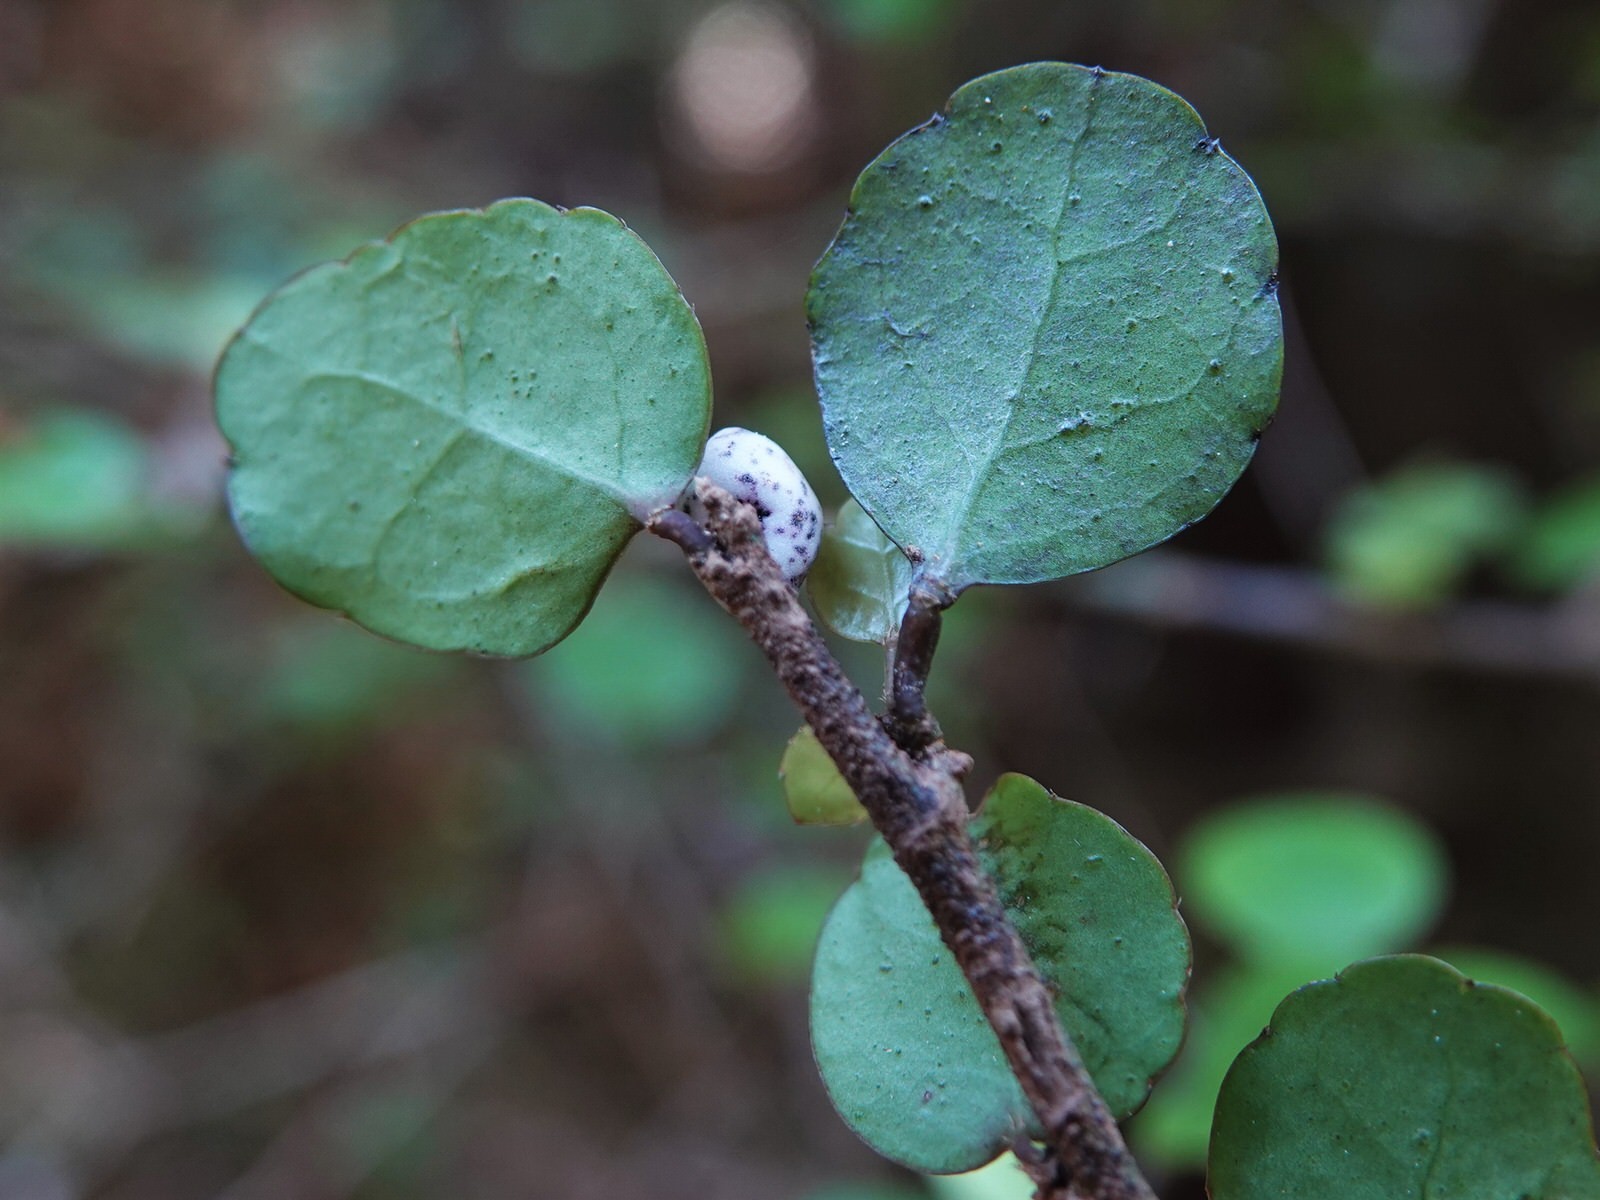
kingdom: Plantae
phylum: Tracheophyta
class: Magnoliopsida
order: Apiales
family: Araliaceae
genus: Raukaua
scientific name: Raukaua anomalus
